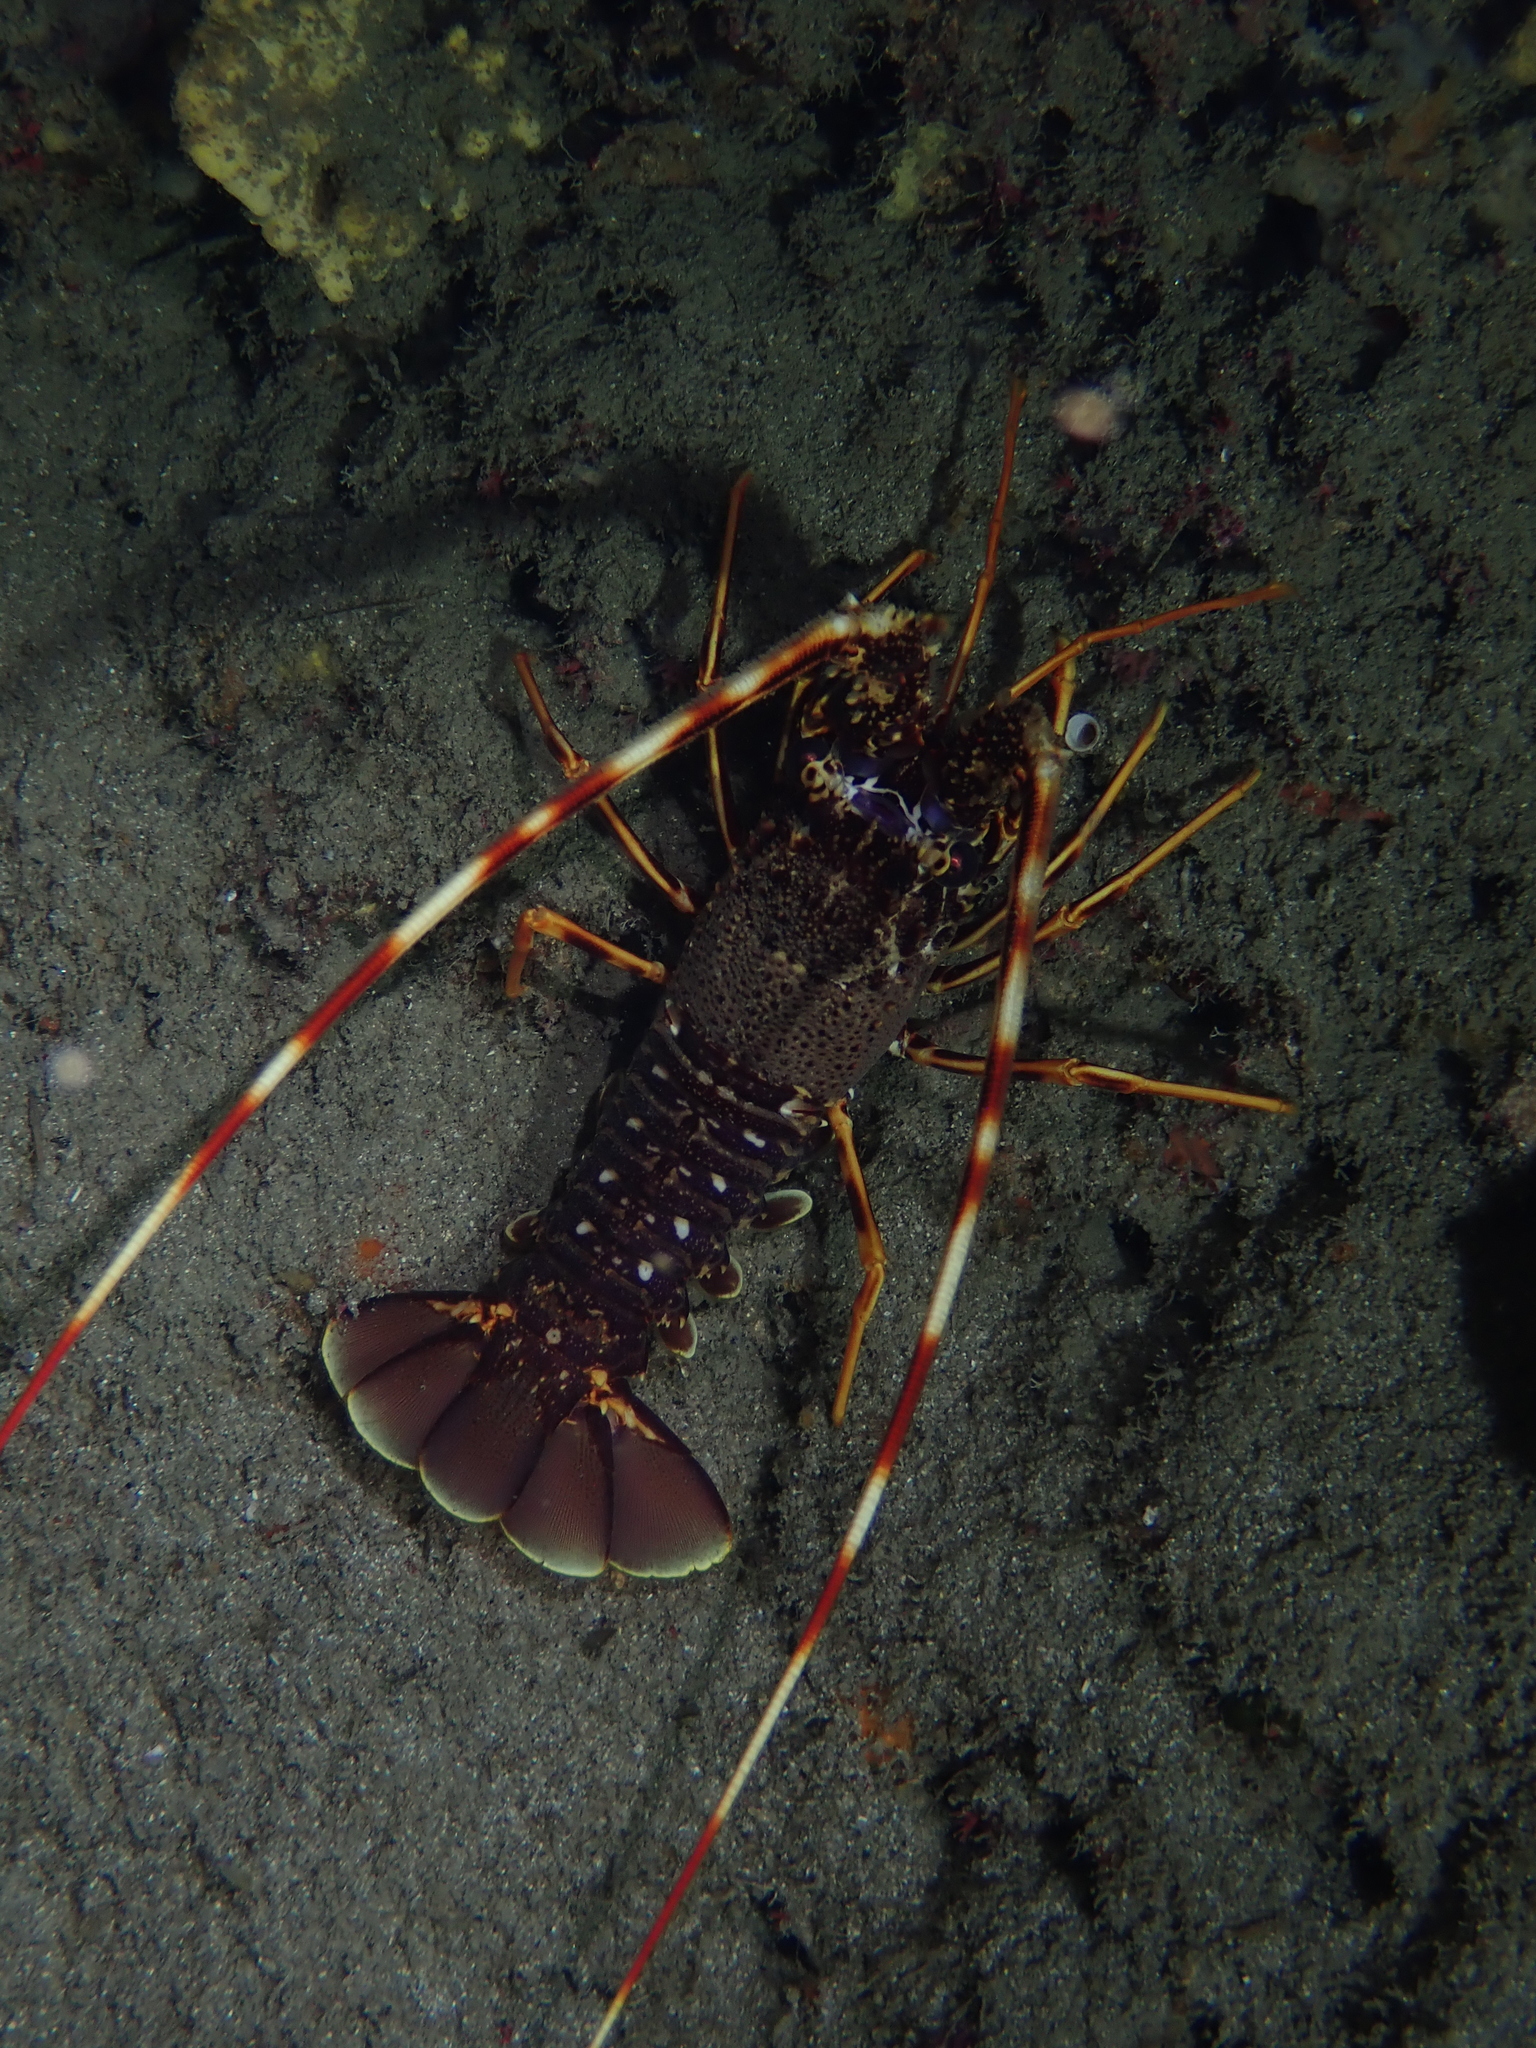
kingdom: Animalia
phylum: Arthropoda
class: Malacostraca
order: Decapoda
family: Palinuridae
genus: Palinurus
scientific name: Palinurus elephas
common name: European spiny lobster
